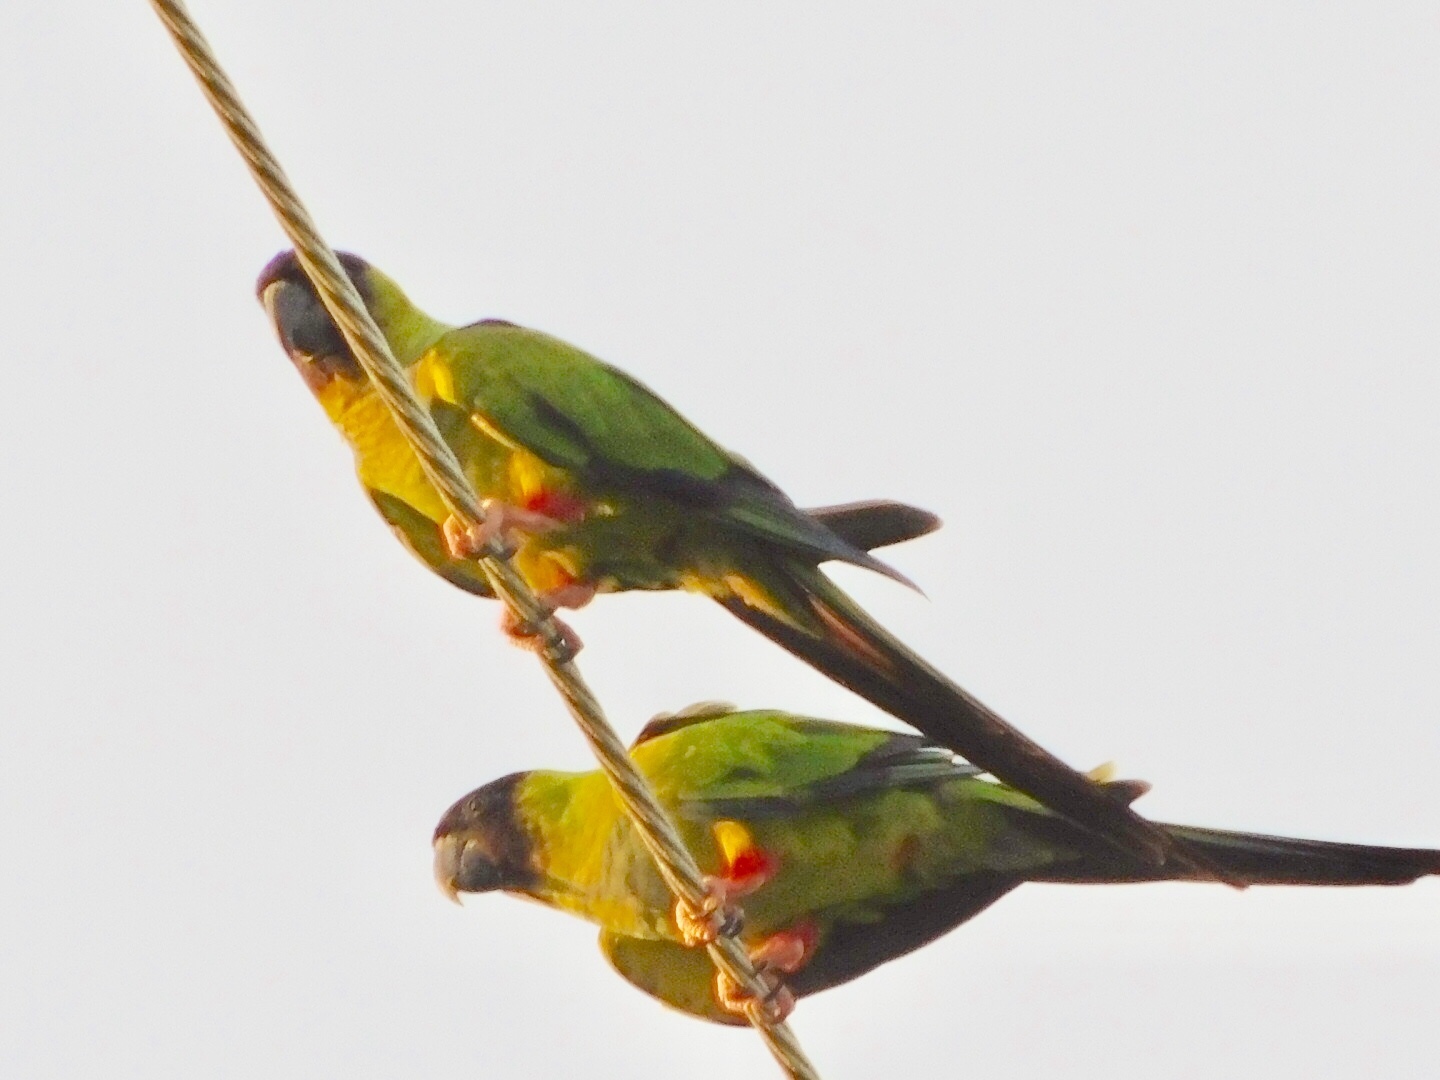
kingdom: Animalia
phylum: Chordata
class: Aves
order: Psittaciformes
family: Psittacidae
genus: Nandayus
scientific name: Nandayus nenday
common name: Nanday parakeet
